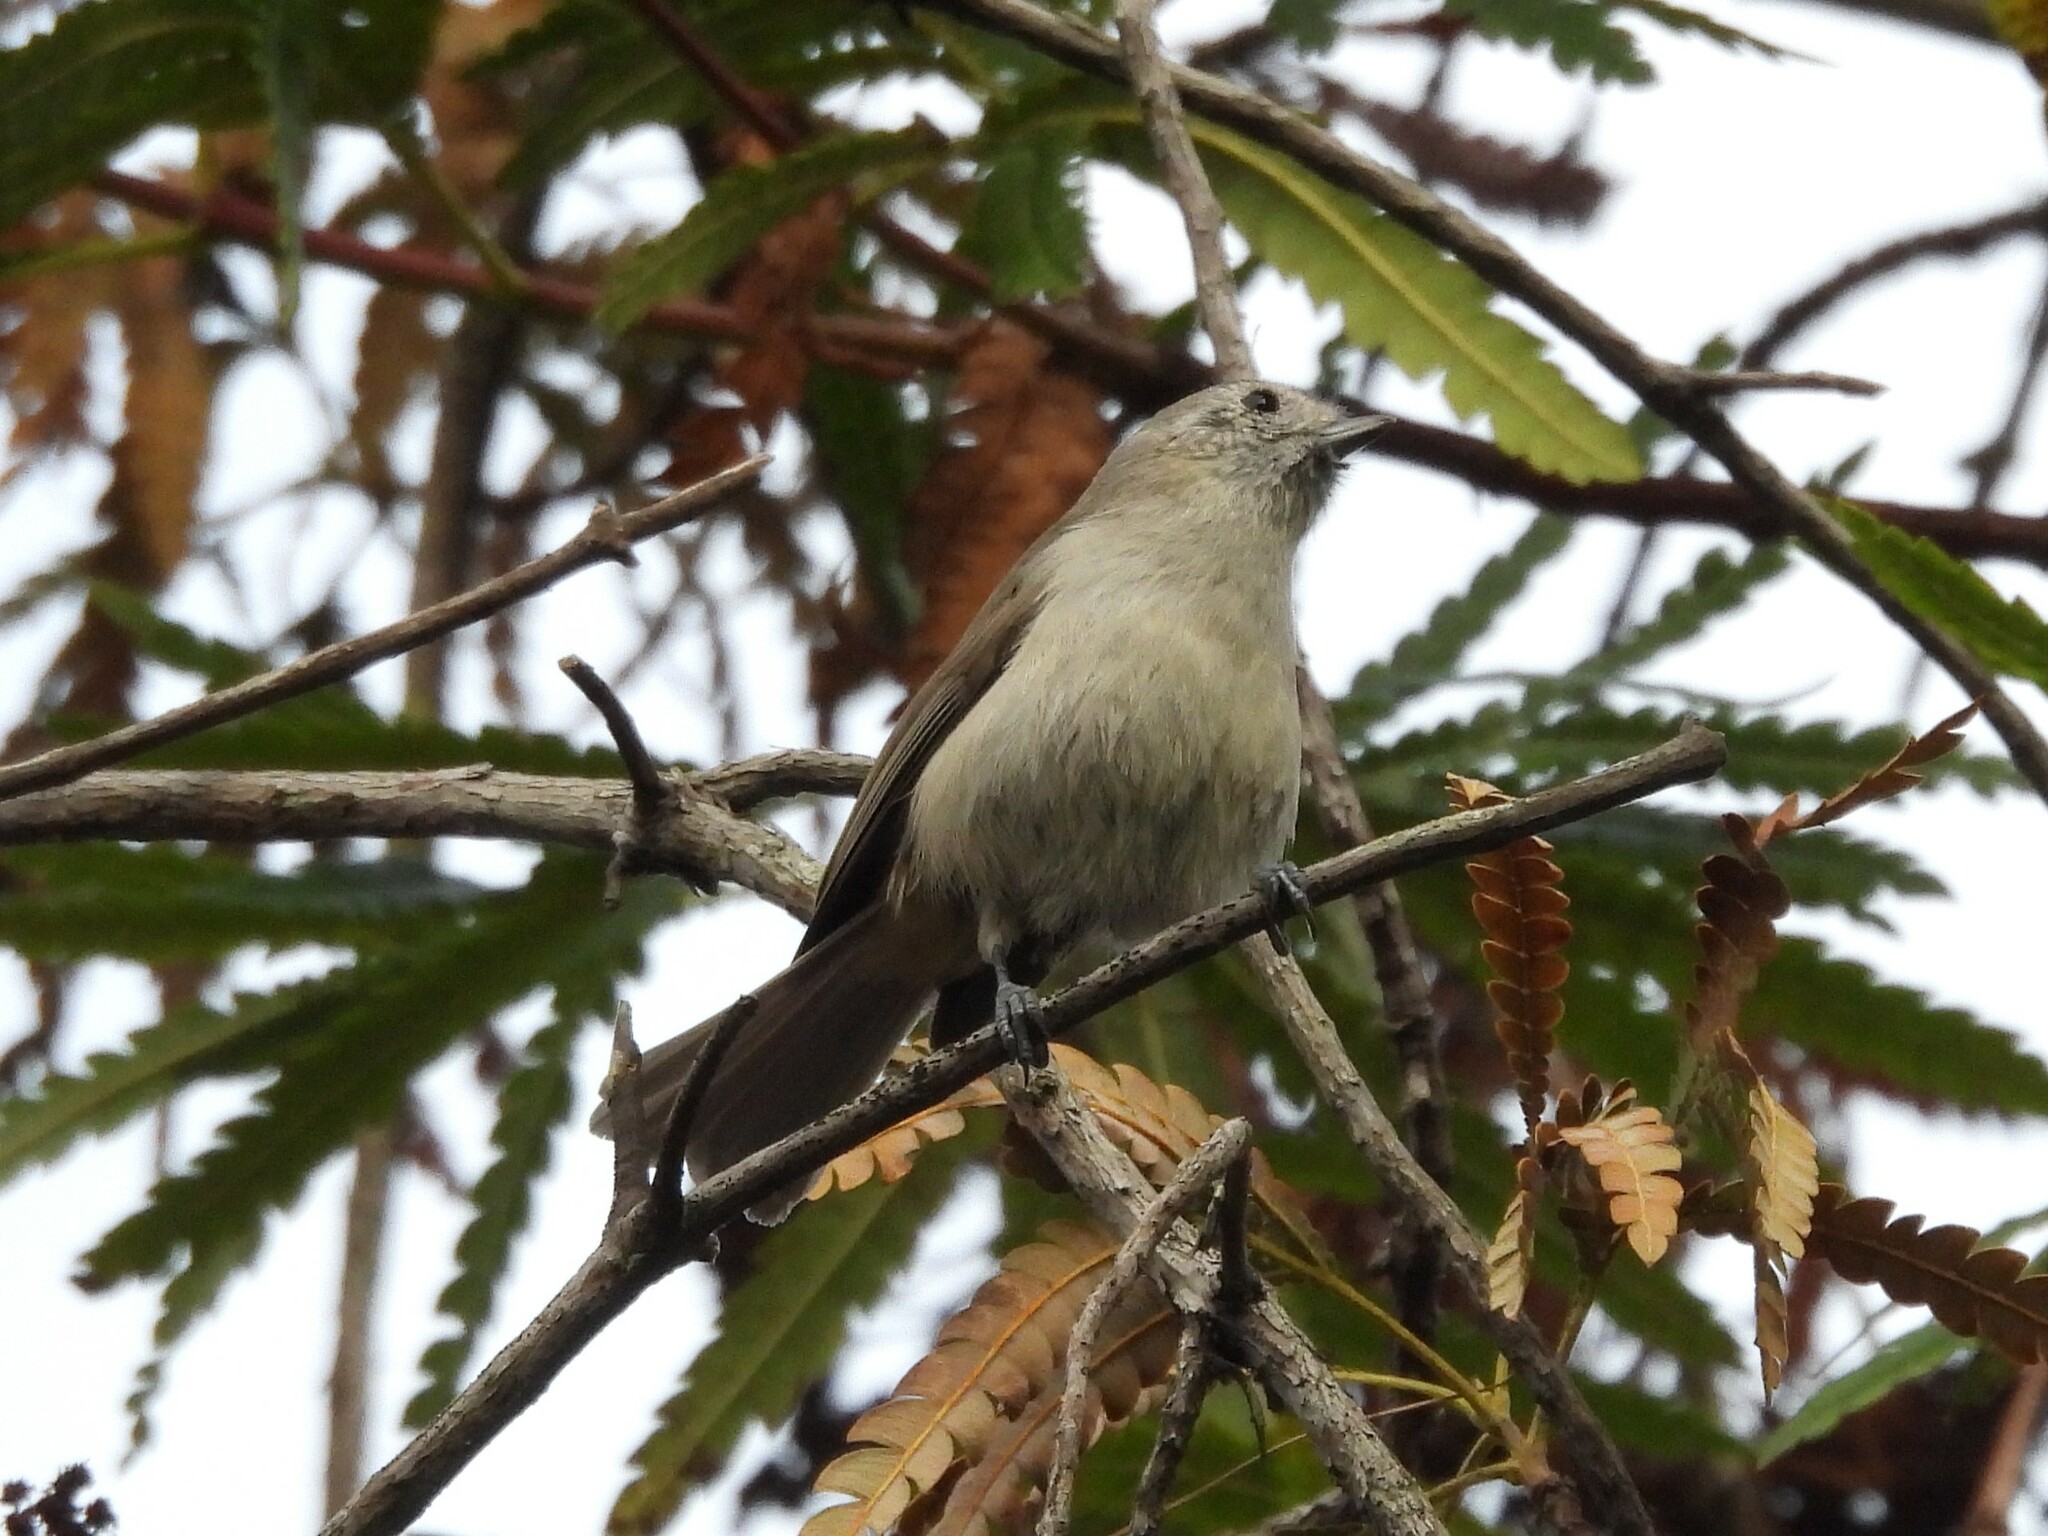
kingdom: Animalia
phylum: Chordata
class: Aves
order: Passeriformes
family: Paridae
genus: Baeolophus
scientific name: Baeolophus inornatus
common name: Oak titmouse
